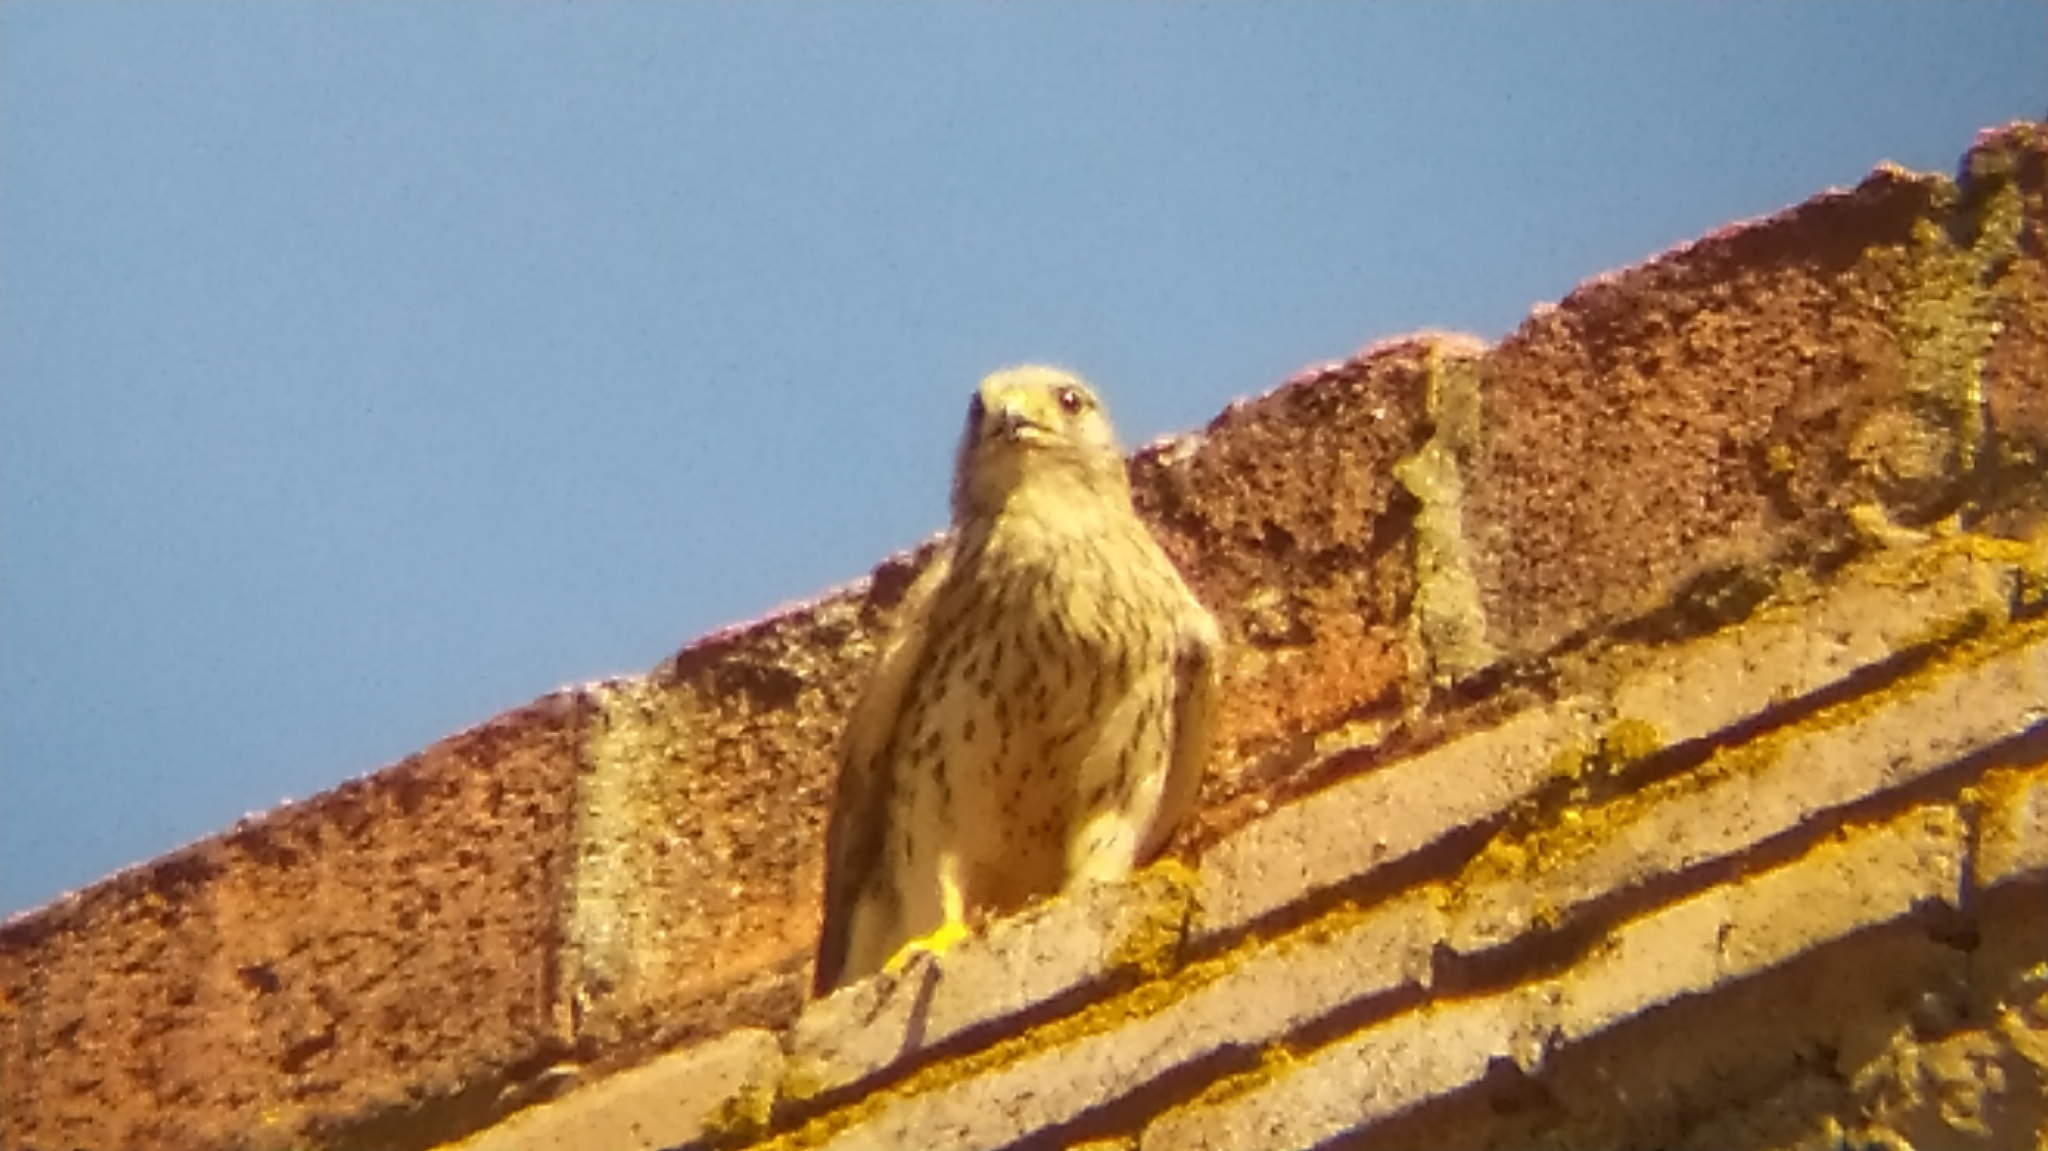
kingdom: Animalia
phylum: Chordata
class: Aves
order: Falconiformes
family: Falconidae
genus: Falco
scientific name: Falco tinnunculus
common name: Common kestrel
